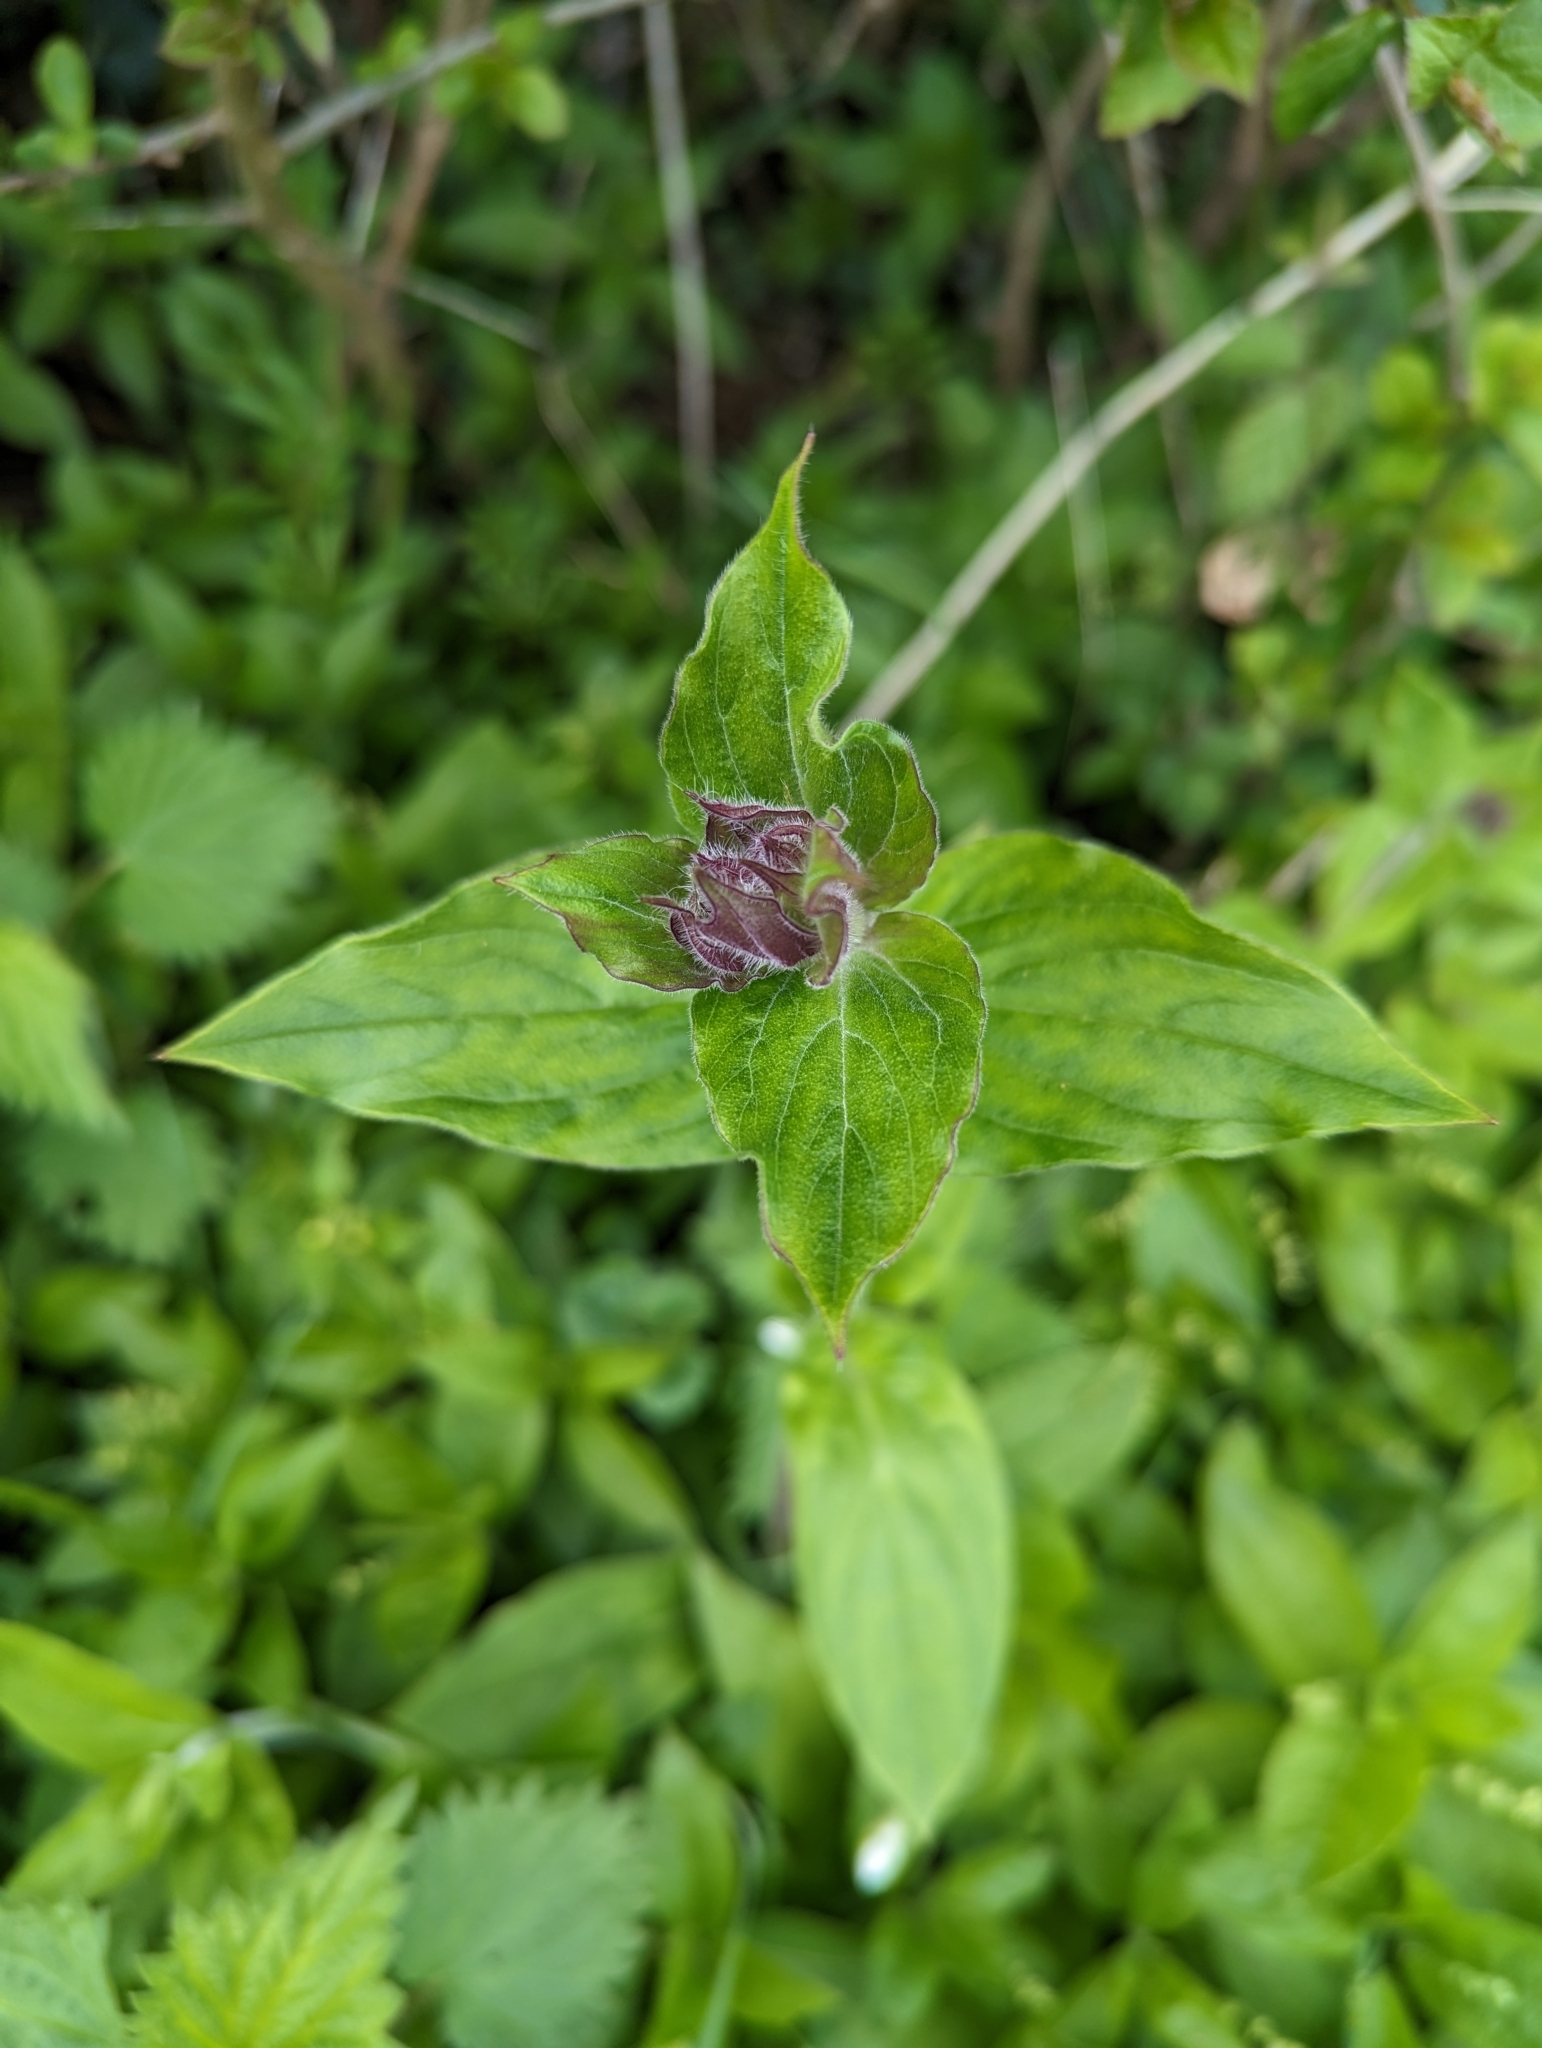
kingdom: Plantae
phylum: Tracheophyta
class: Magnoliopsida
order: Caryophyllales
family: Caryophyllaceae
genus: Silene
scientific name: Silene dioica
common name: Red campion
